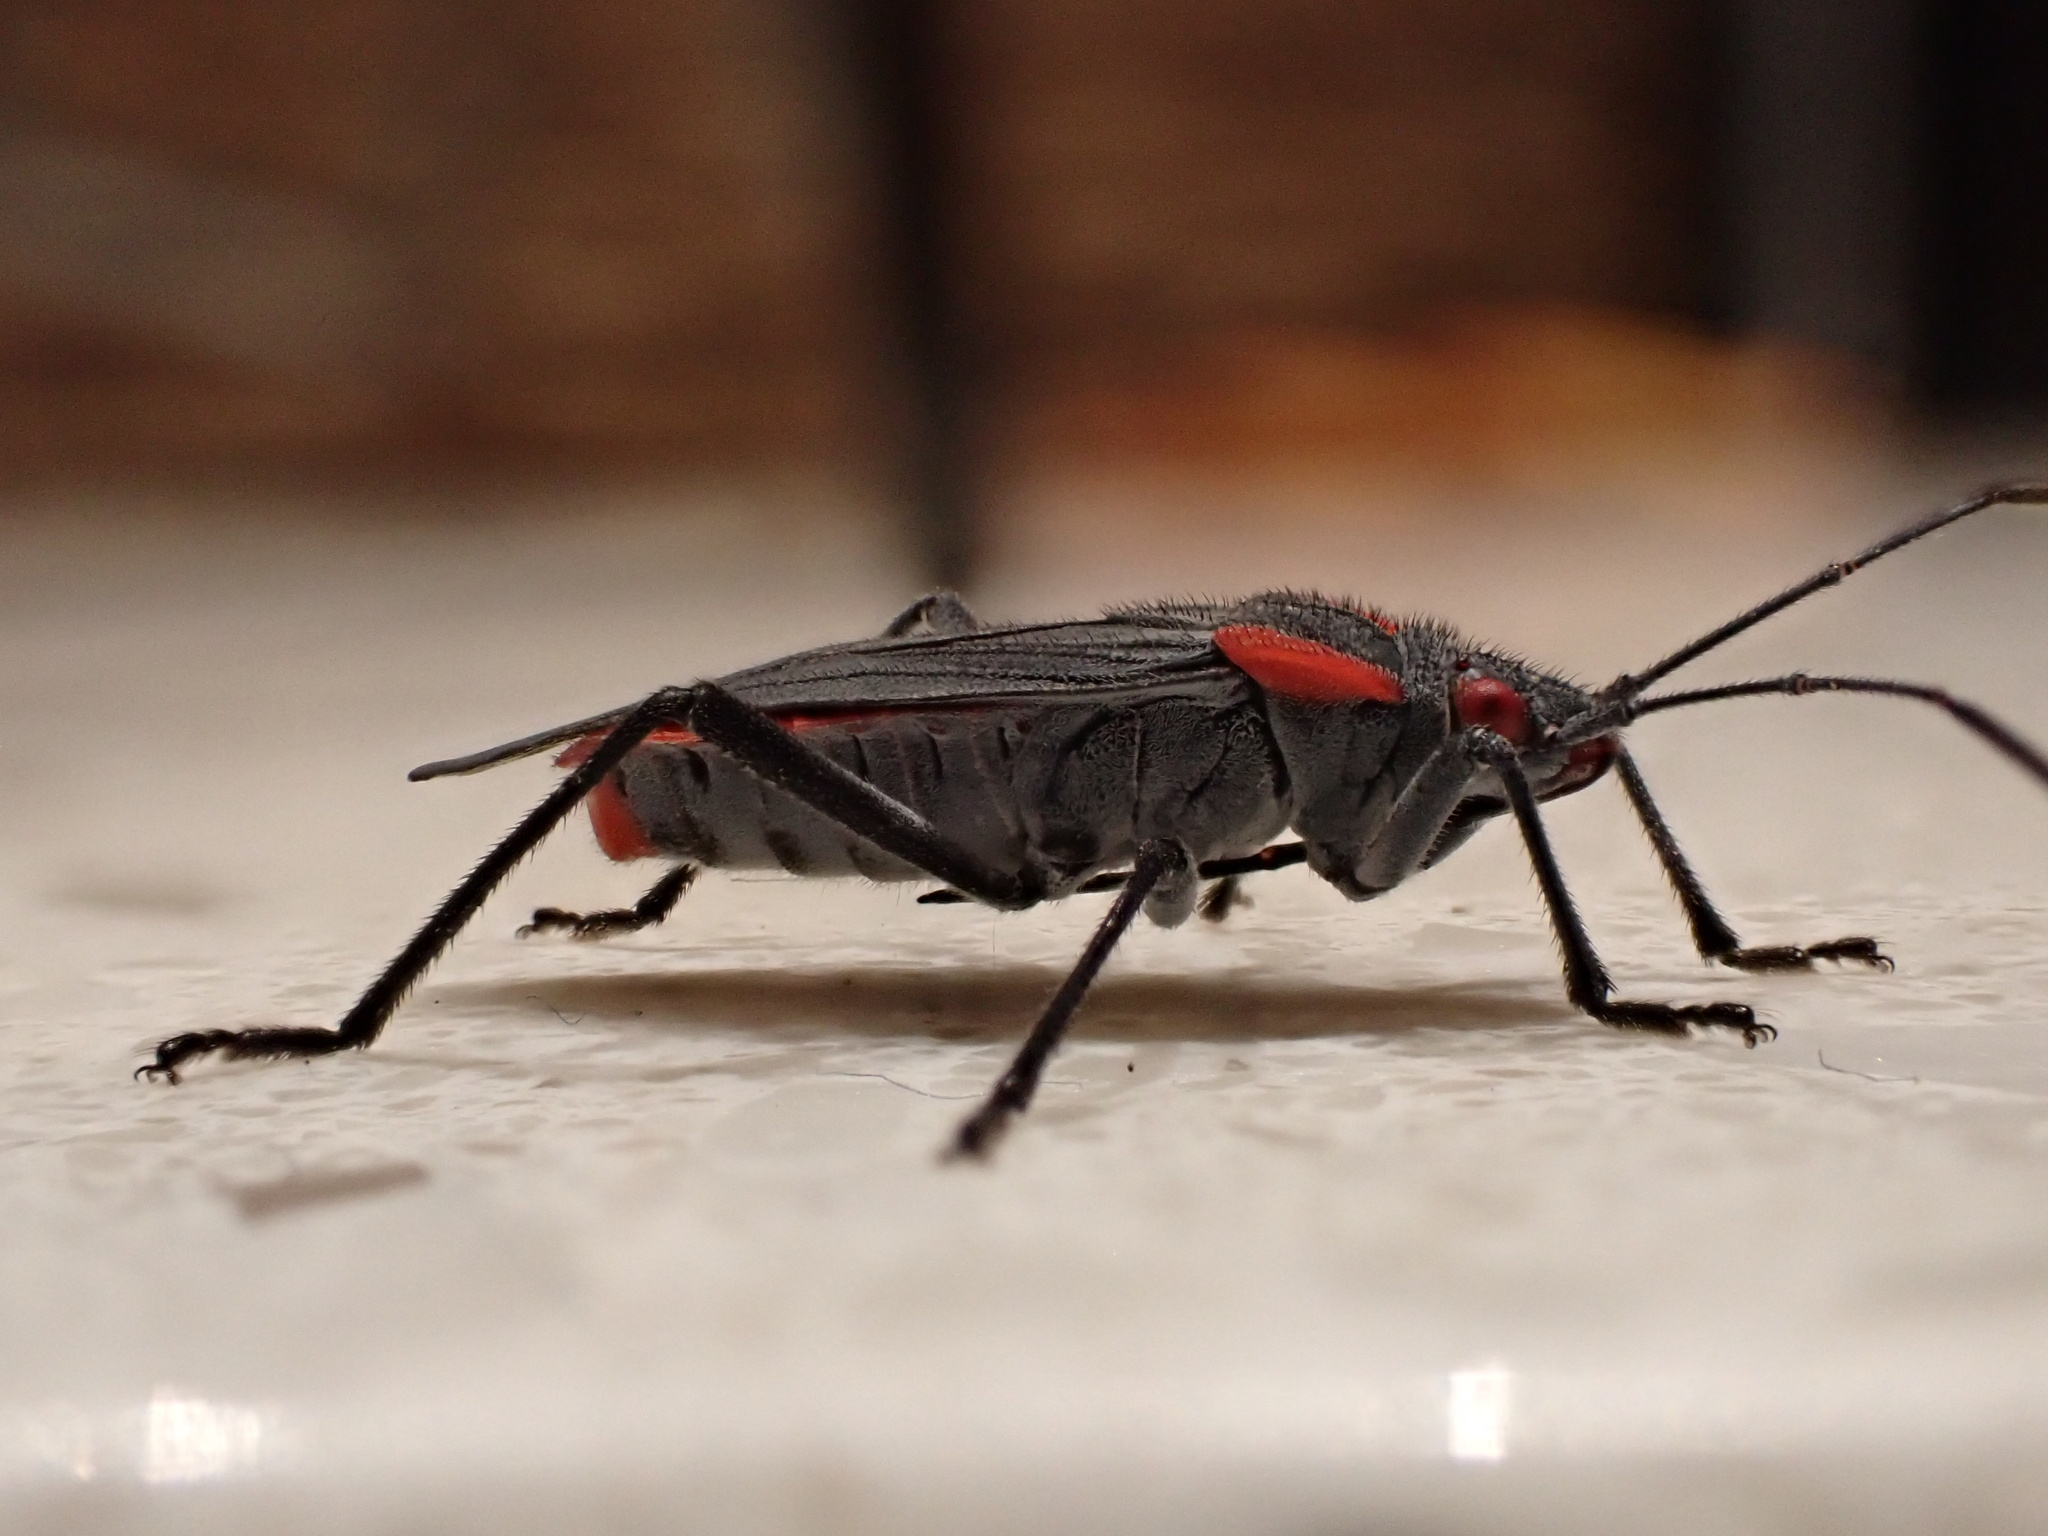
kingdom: Animalia
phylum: Arthropoda
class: Insecta
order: Hemiptera
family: Rhopalidae
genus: Jadera
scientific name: Jadera haematoloma
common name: Red-shouldered bug
